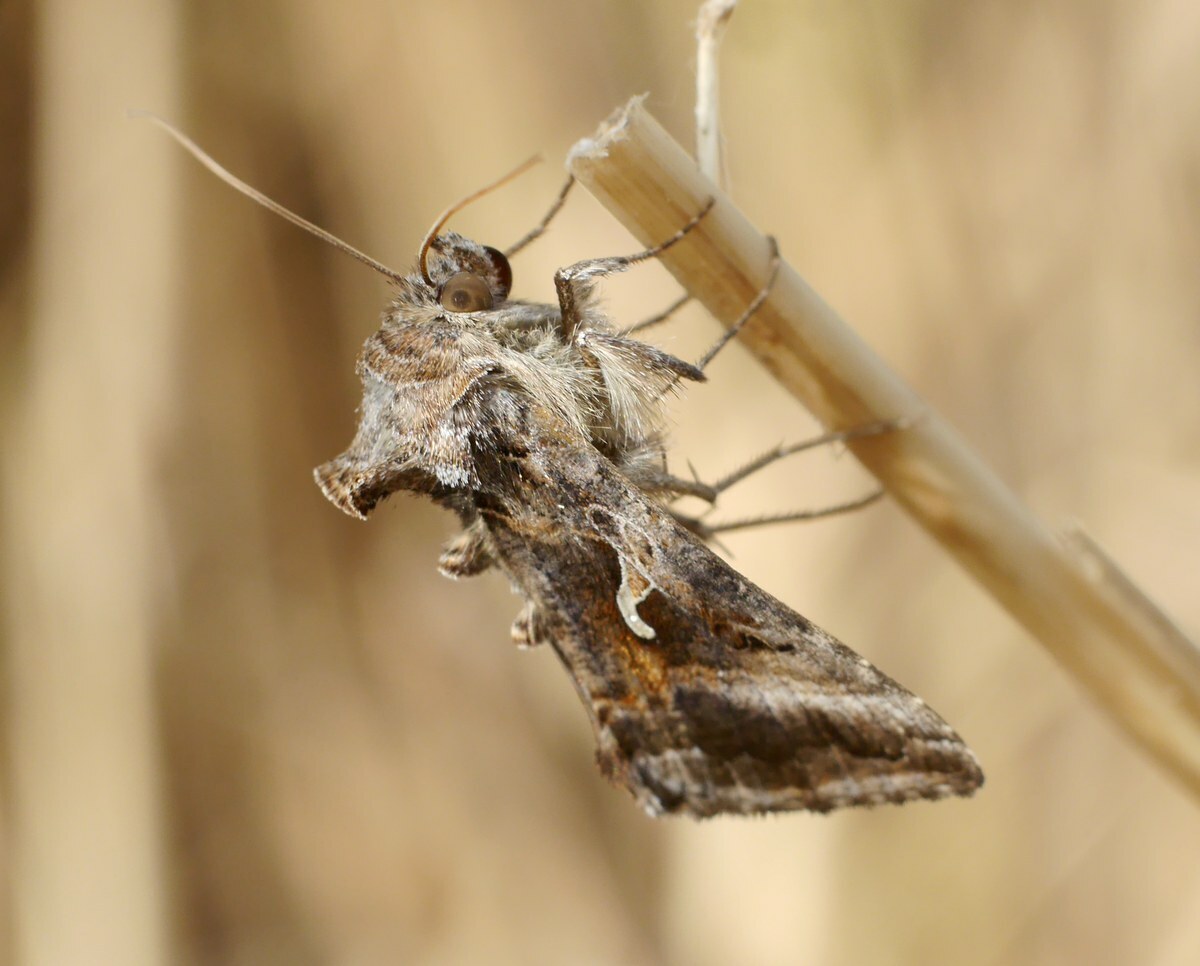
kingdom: Animalia
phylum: Arthropoda
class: Insecta
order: Lepidoptera
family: Noctuidae
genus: Autographa
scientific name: Autographa gamma
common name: Silver y
